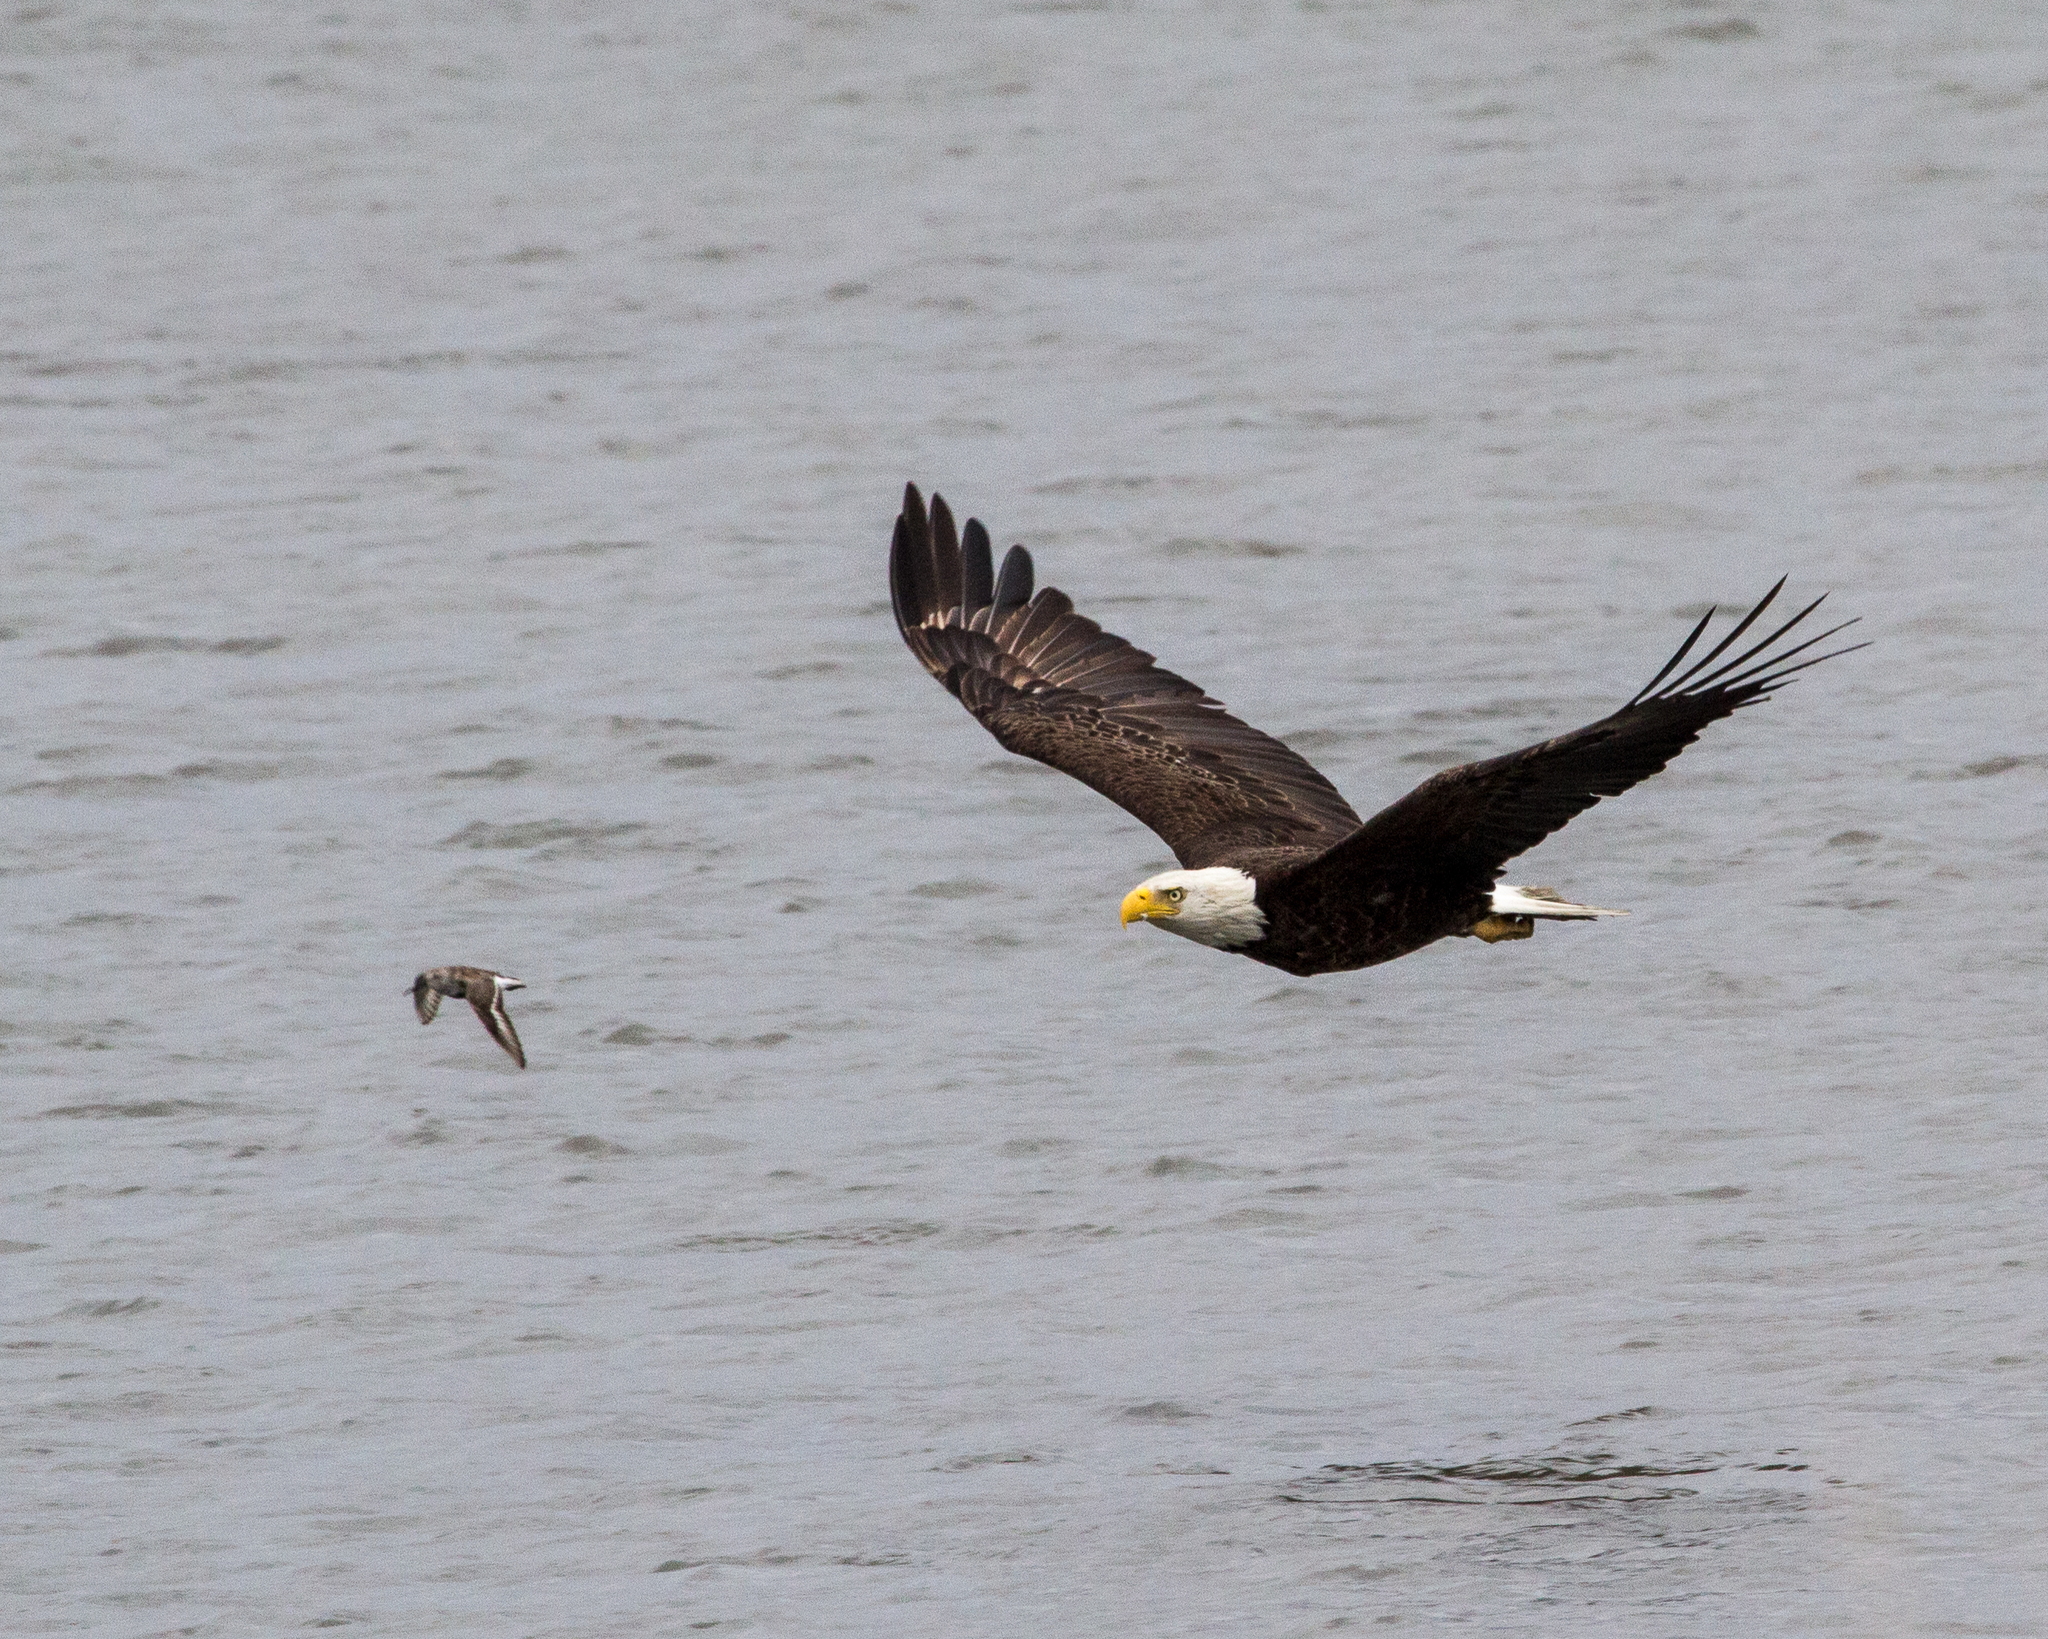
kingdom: Animalia
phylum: Chordata
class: Aves
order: Accipitriformes
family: Accipitridae
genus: Haliaeetus
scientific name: Haliaeetus leucocephalus
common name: Bald eagle
